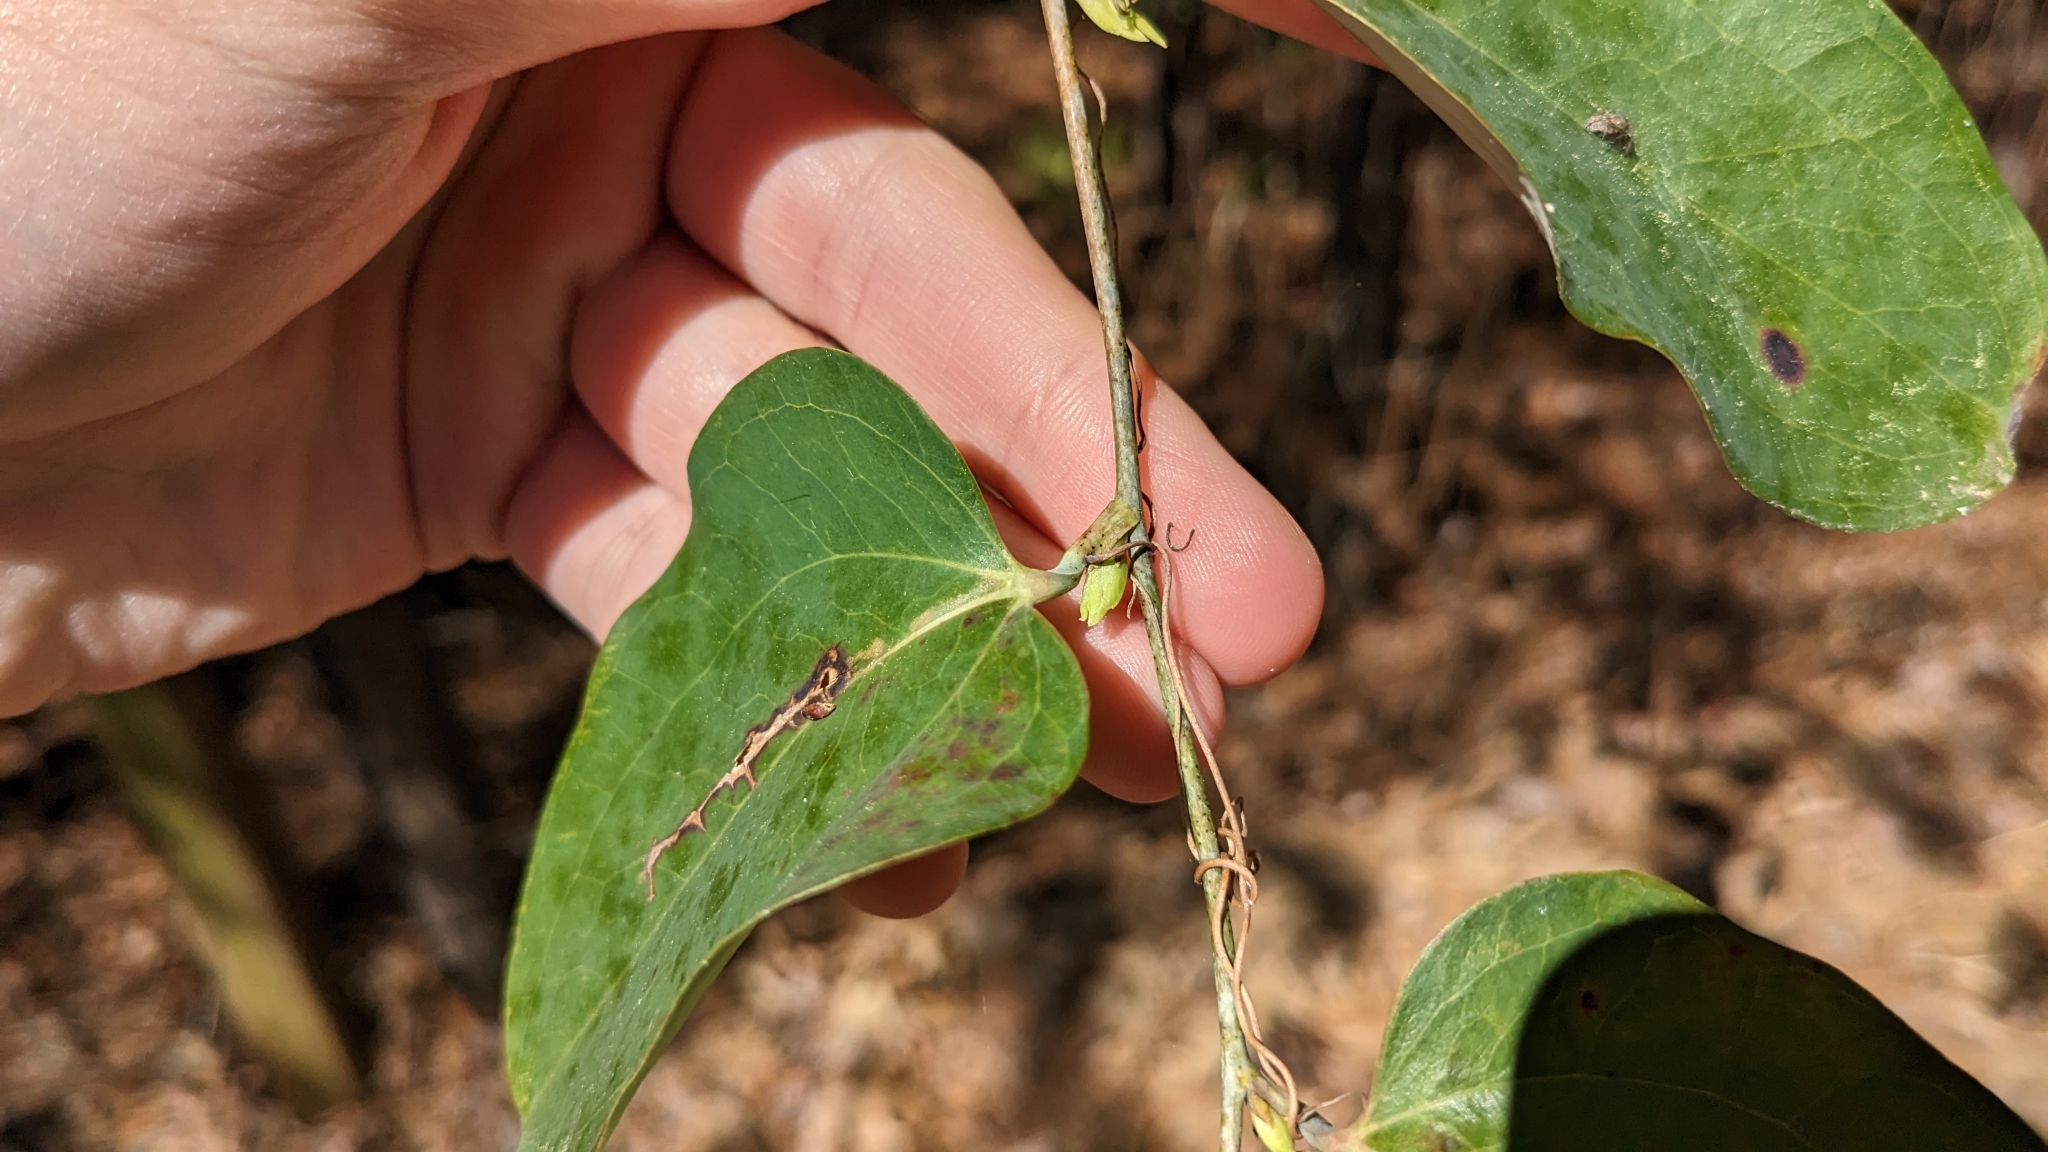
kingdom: Plantae
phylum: Tracheophyta
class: Liliopsida
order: Liliales
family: Smilacaceae
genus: Smilax
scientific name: Smilax glauca
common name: Cat greenbrier
